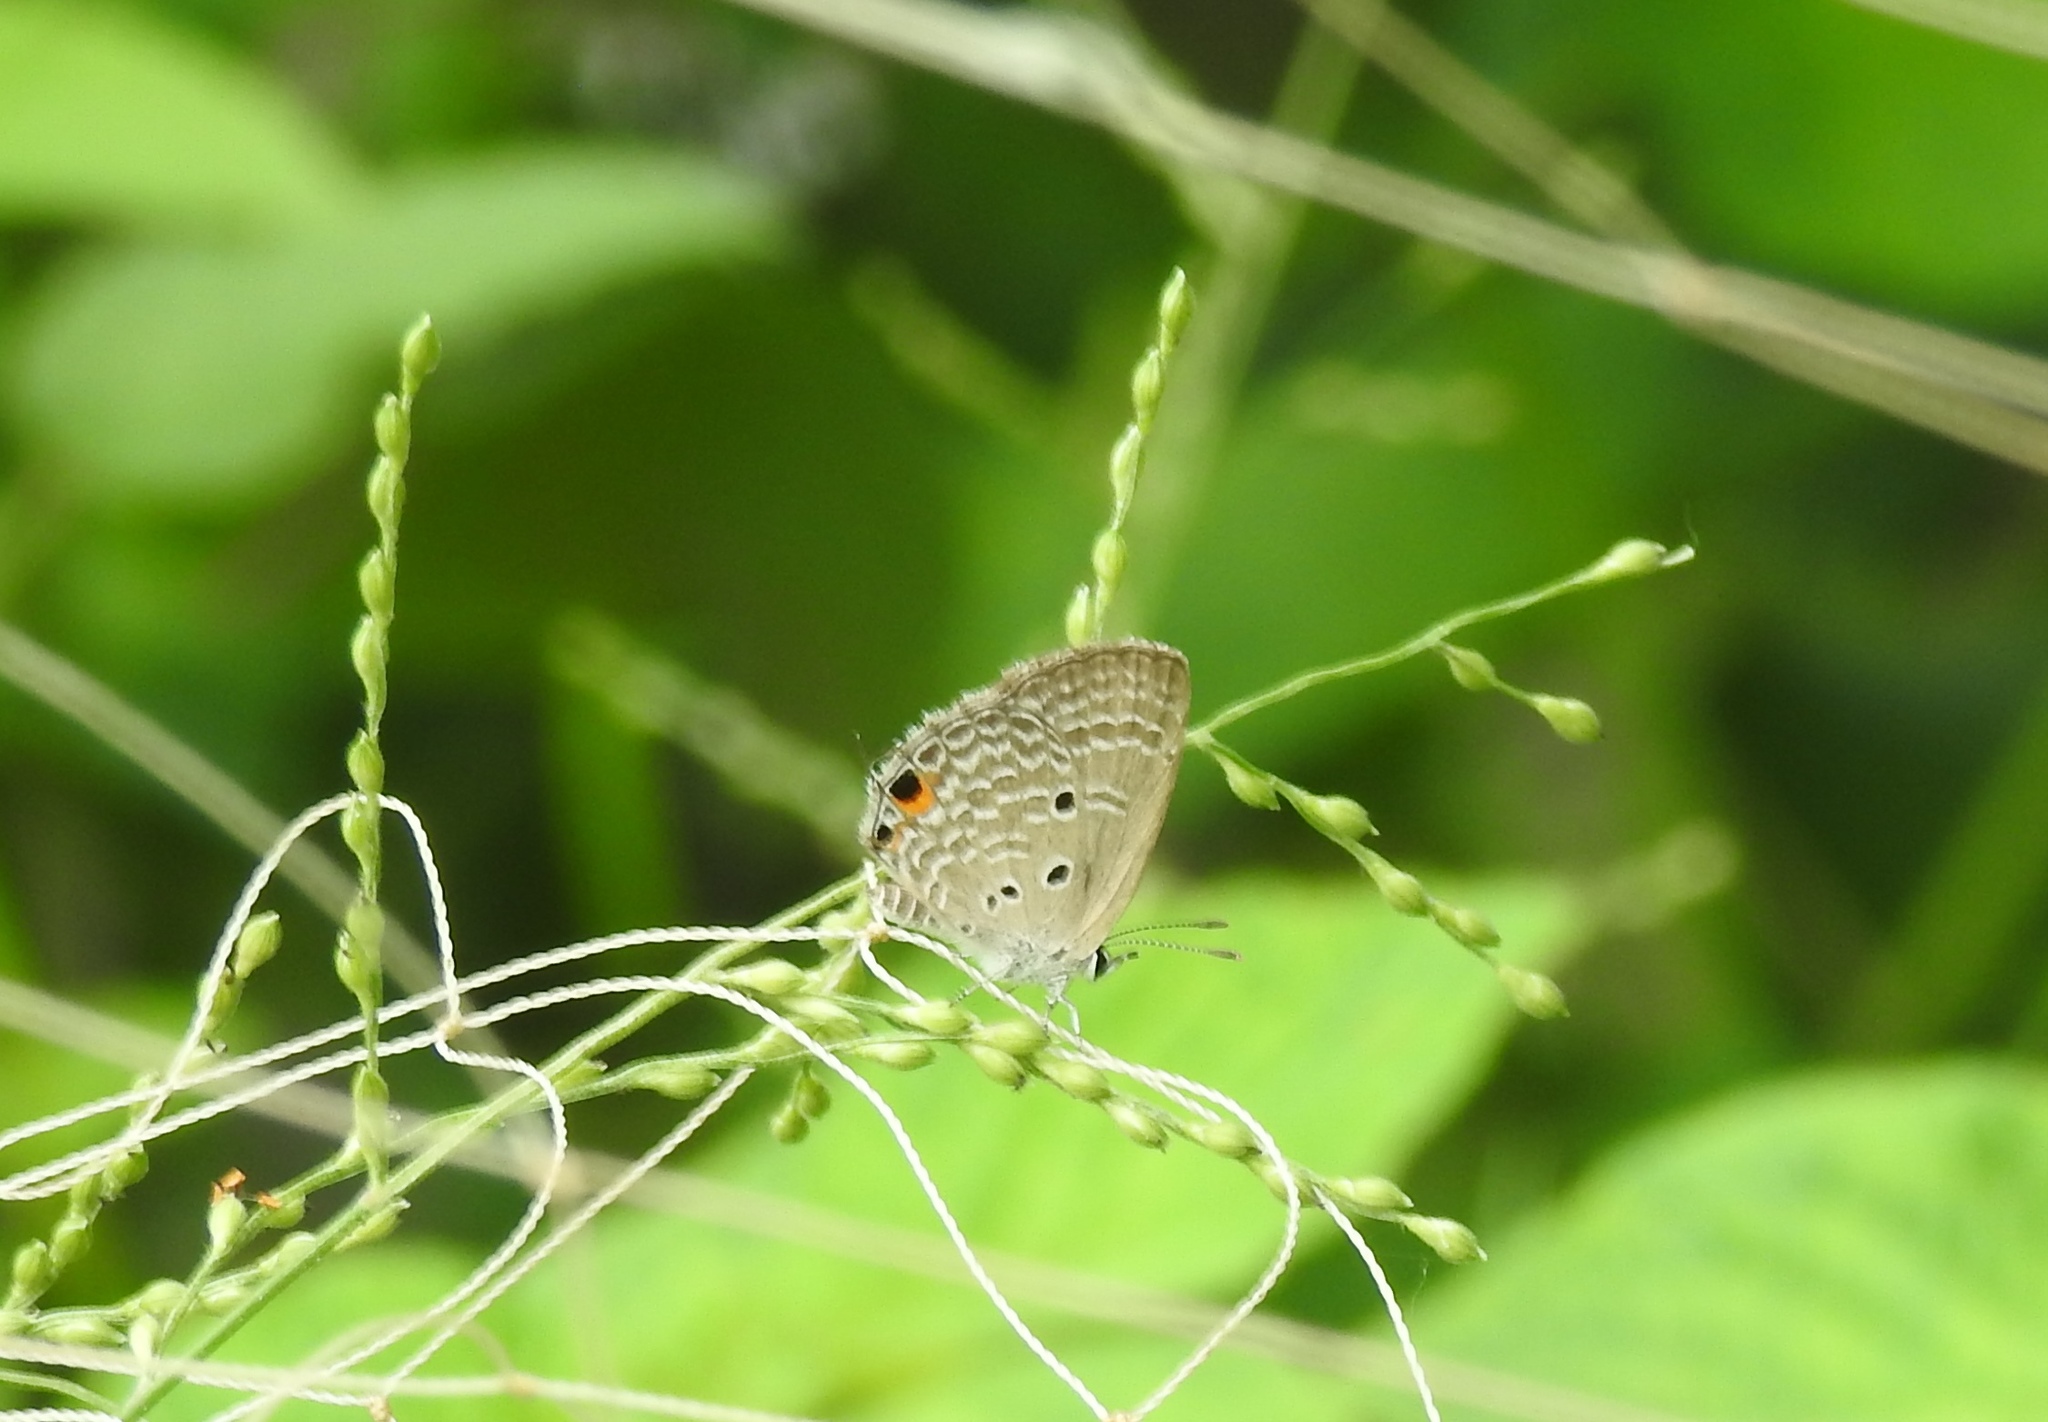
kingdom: Animalia
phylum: Arthropoda
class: Insecta
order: Lepidoptera
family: Lycaenidae
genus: Luthrodes
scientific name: Luthrodes pandava
